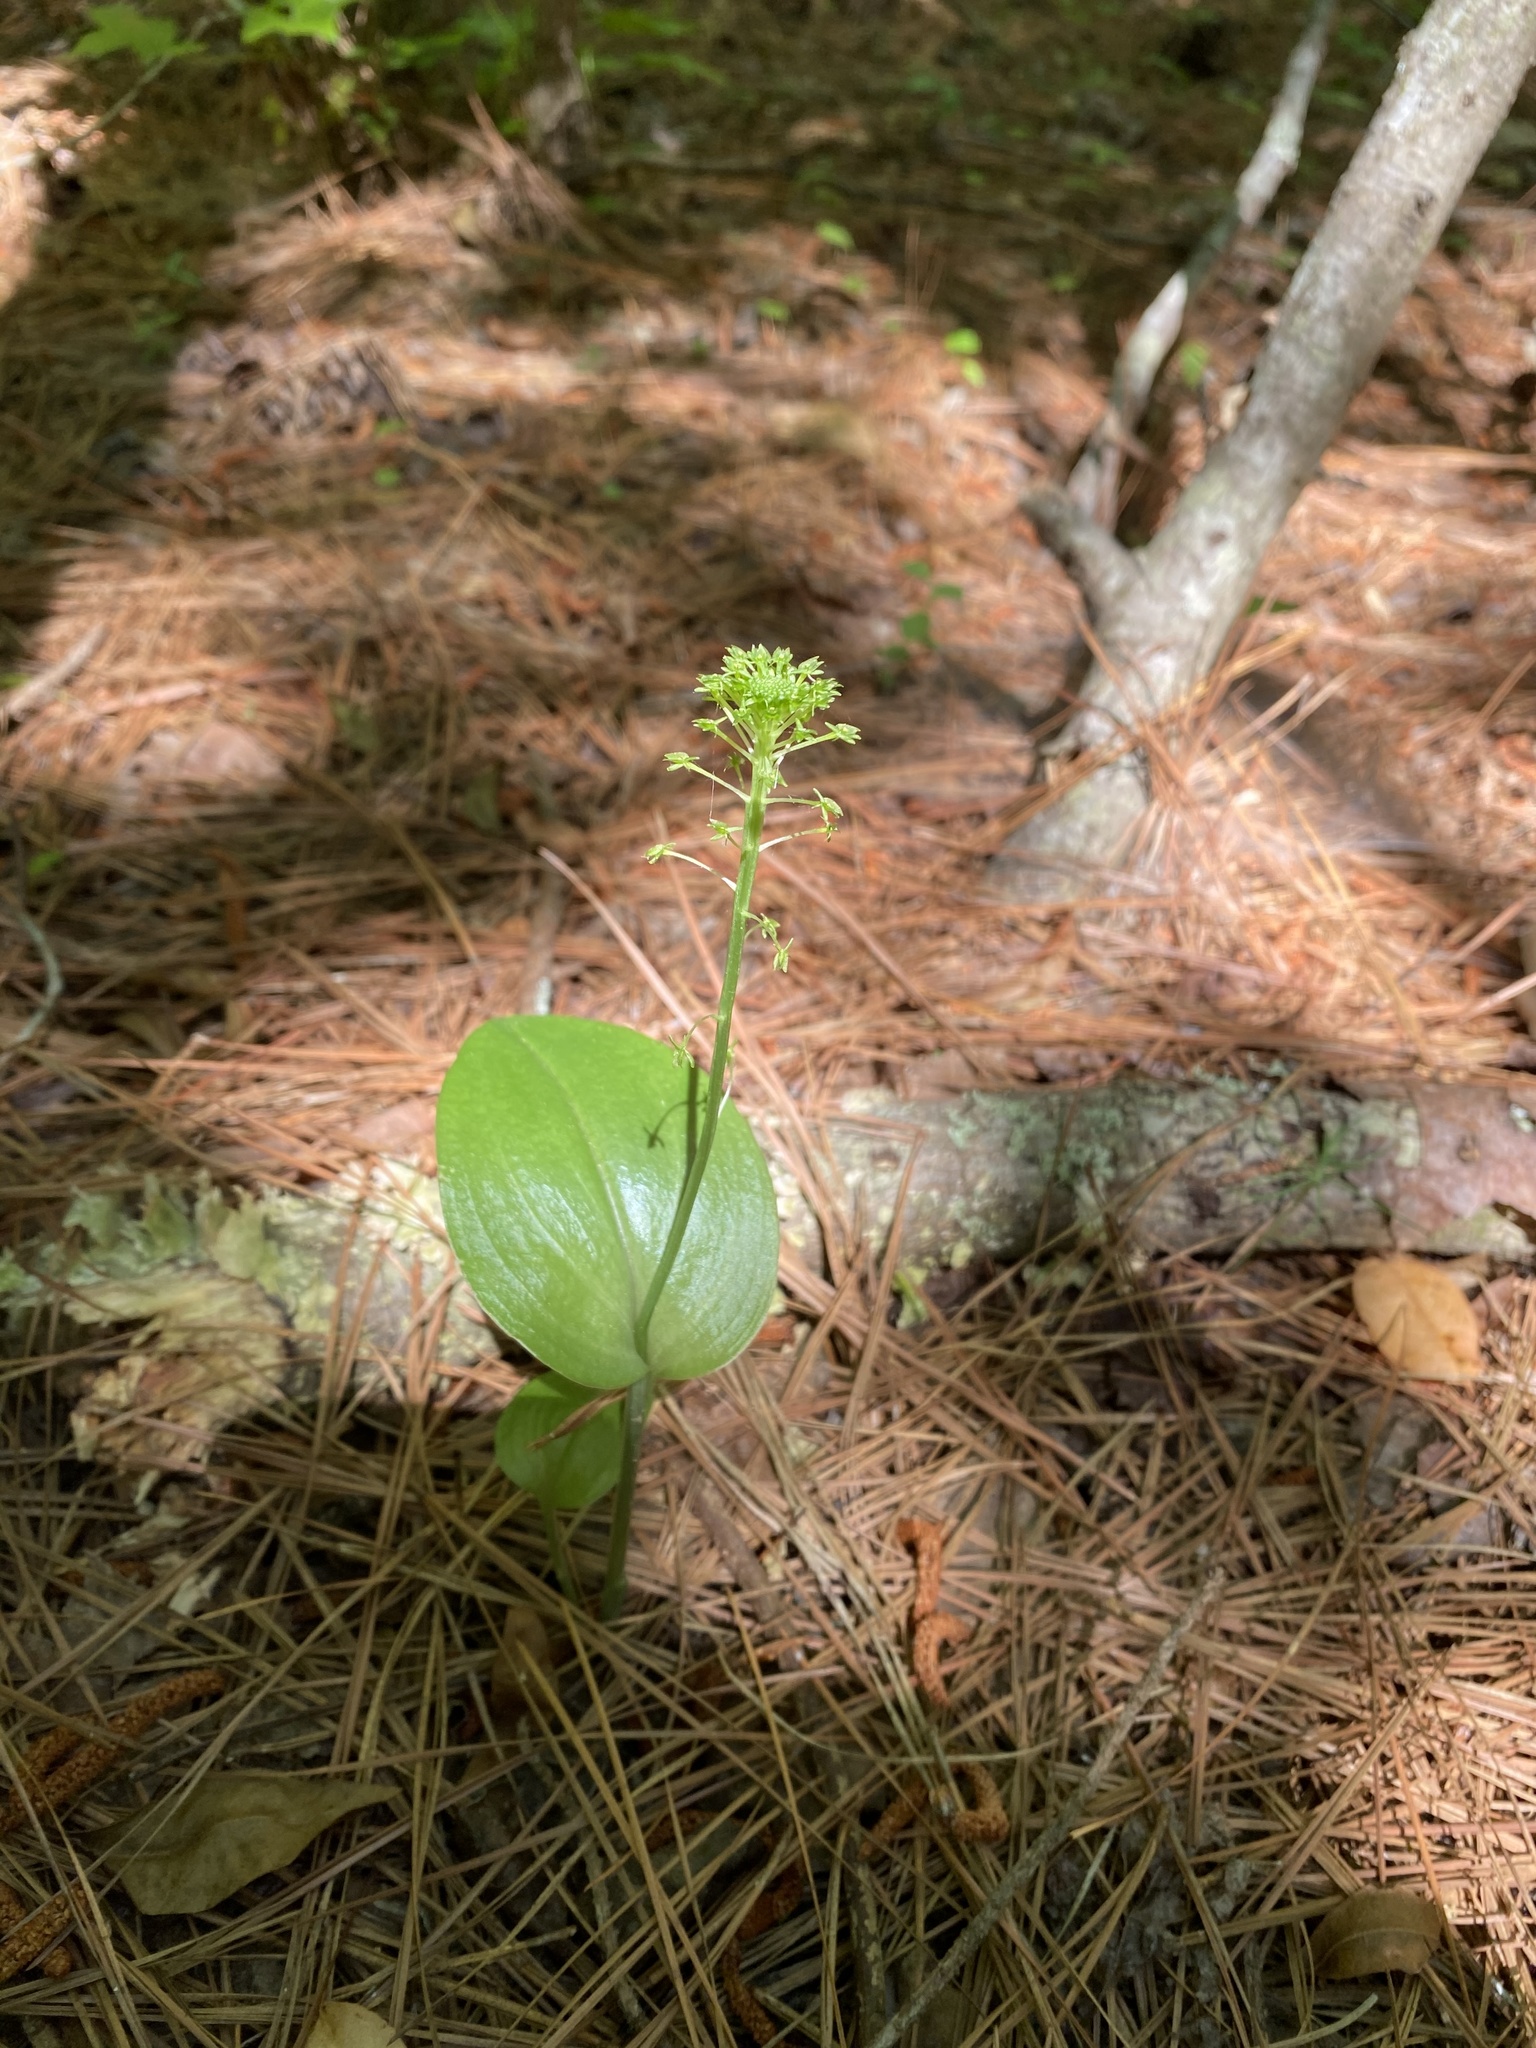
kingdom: Plantae
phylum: Tracheophyta
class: Liliopsida
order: Asparagales
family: Orchidaceae
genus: Malaxis
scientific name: Malaxis unifolia
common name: Green adder's-mouth
